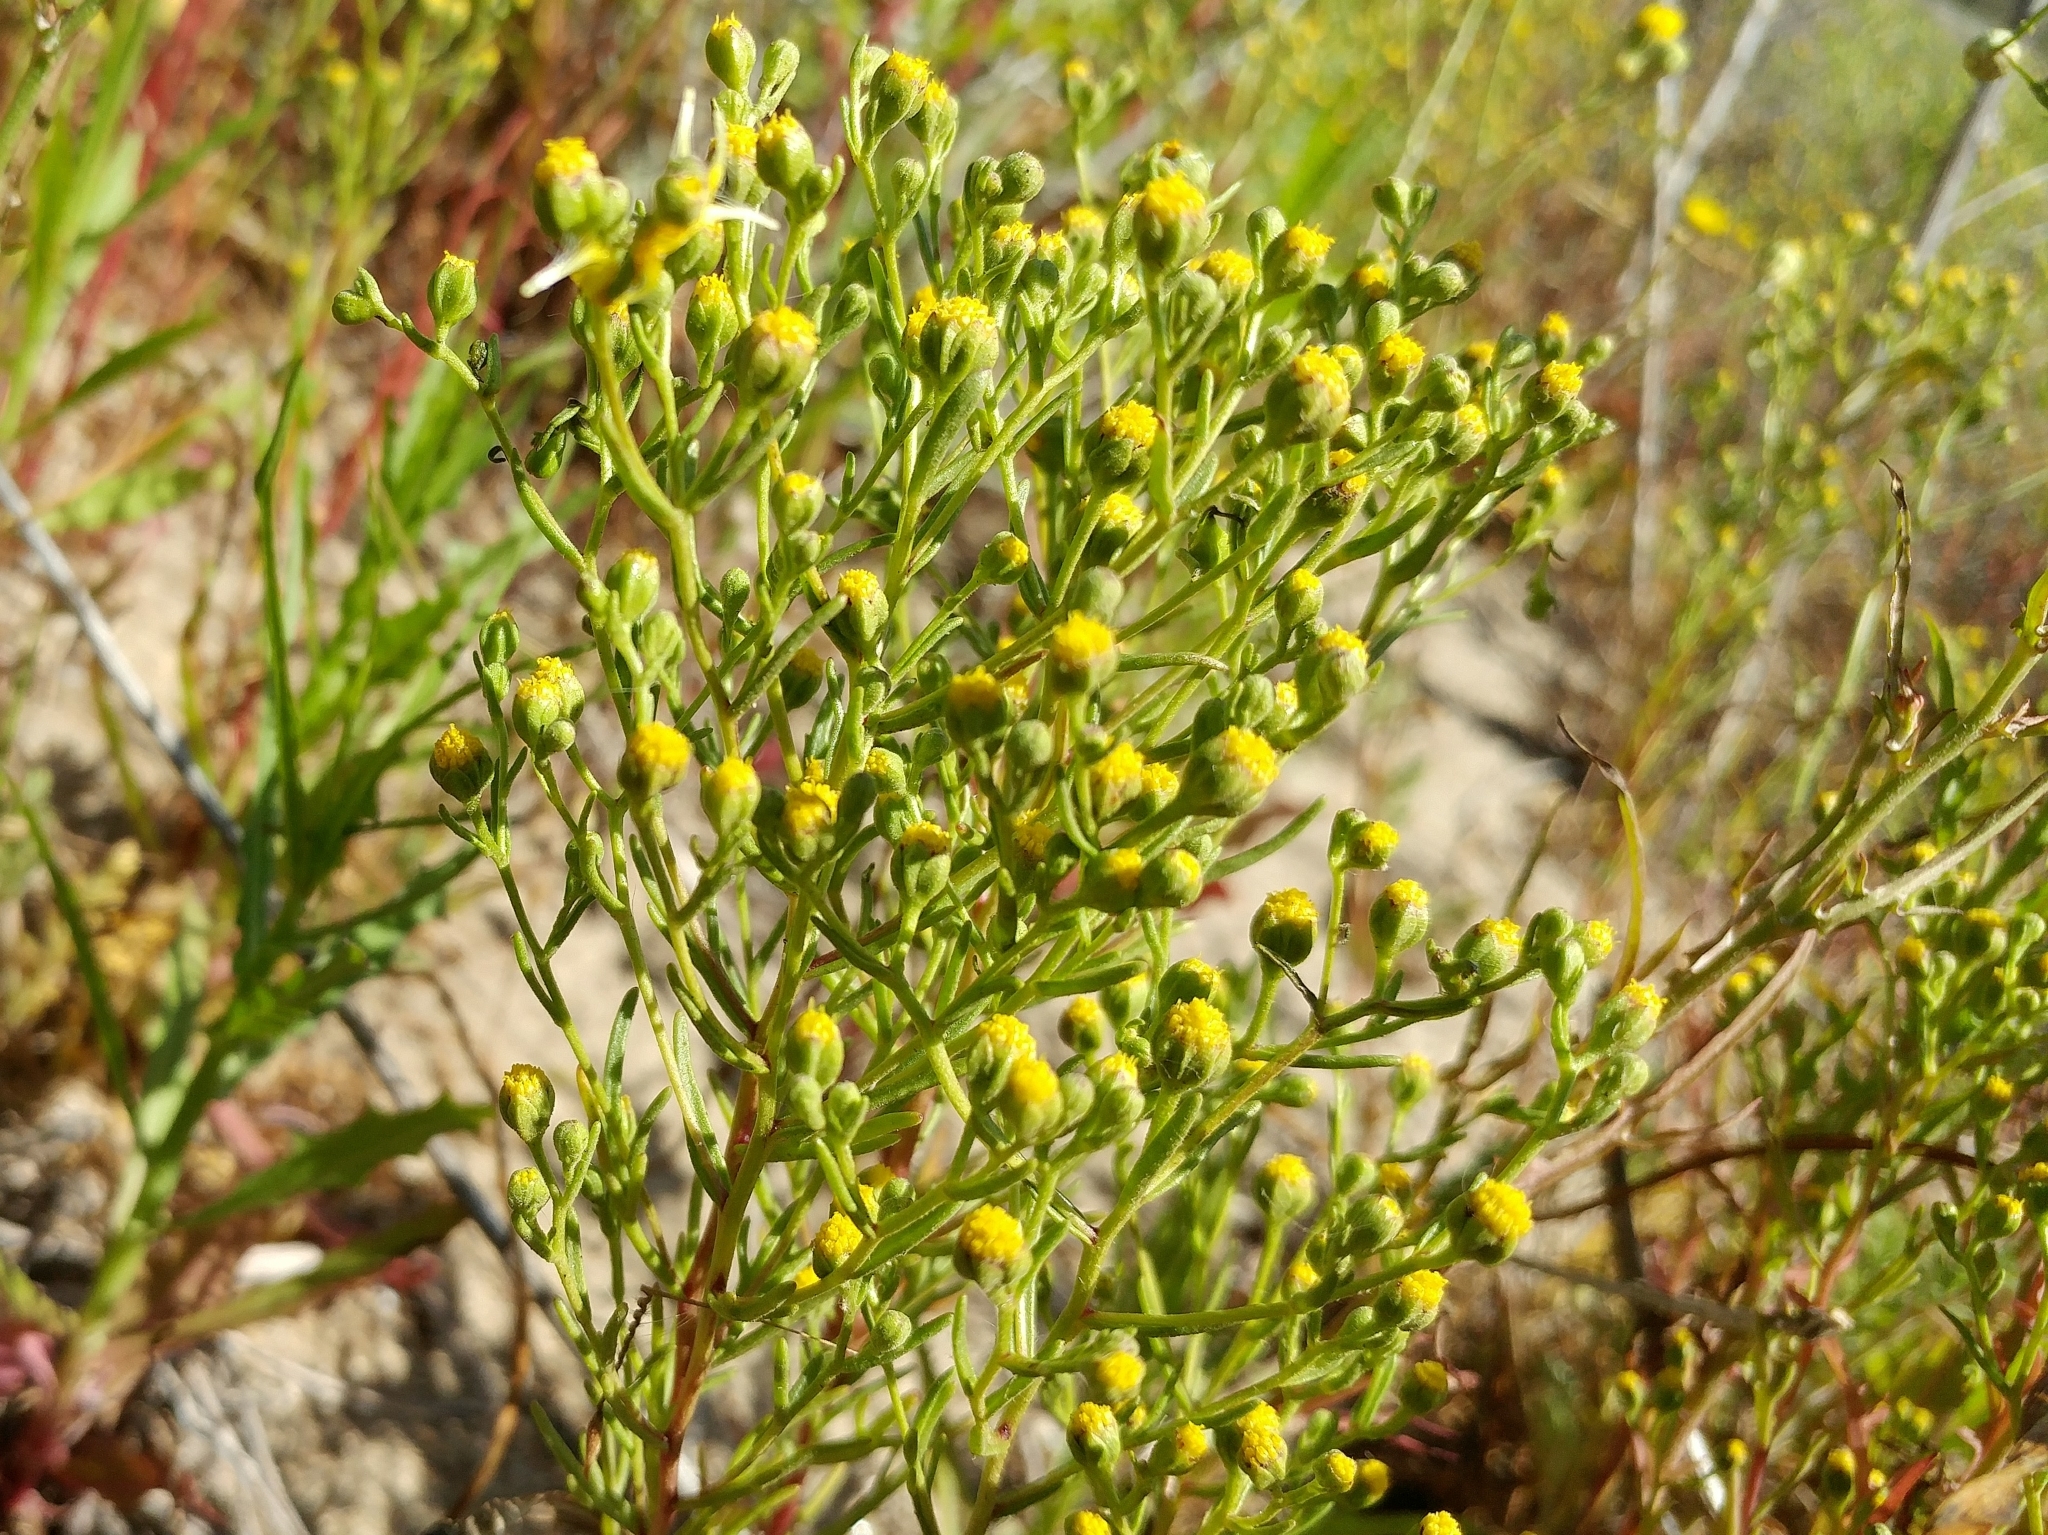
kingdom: Plantae
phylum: Tracheophyta
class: Magnoliopsida
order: Asterales
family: Asteraceae
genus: Amblyopappus
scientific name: Amblyopappus pusillus
